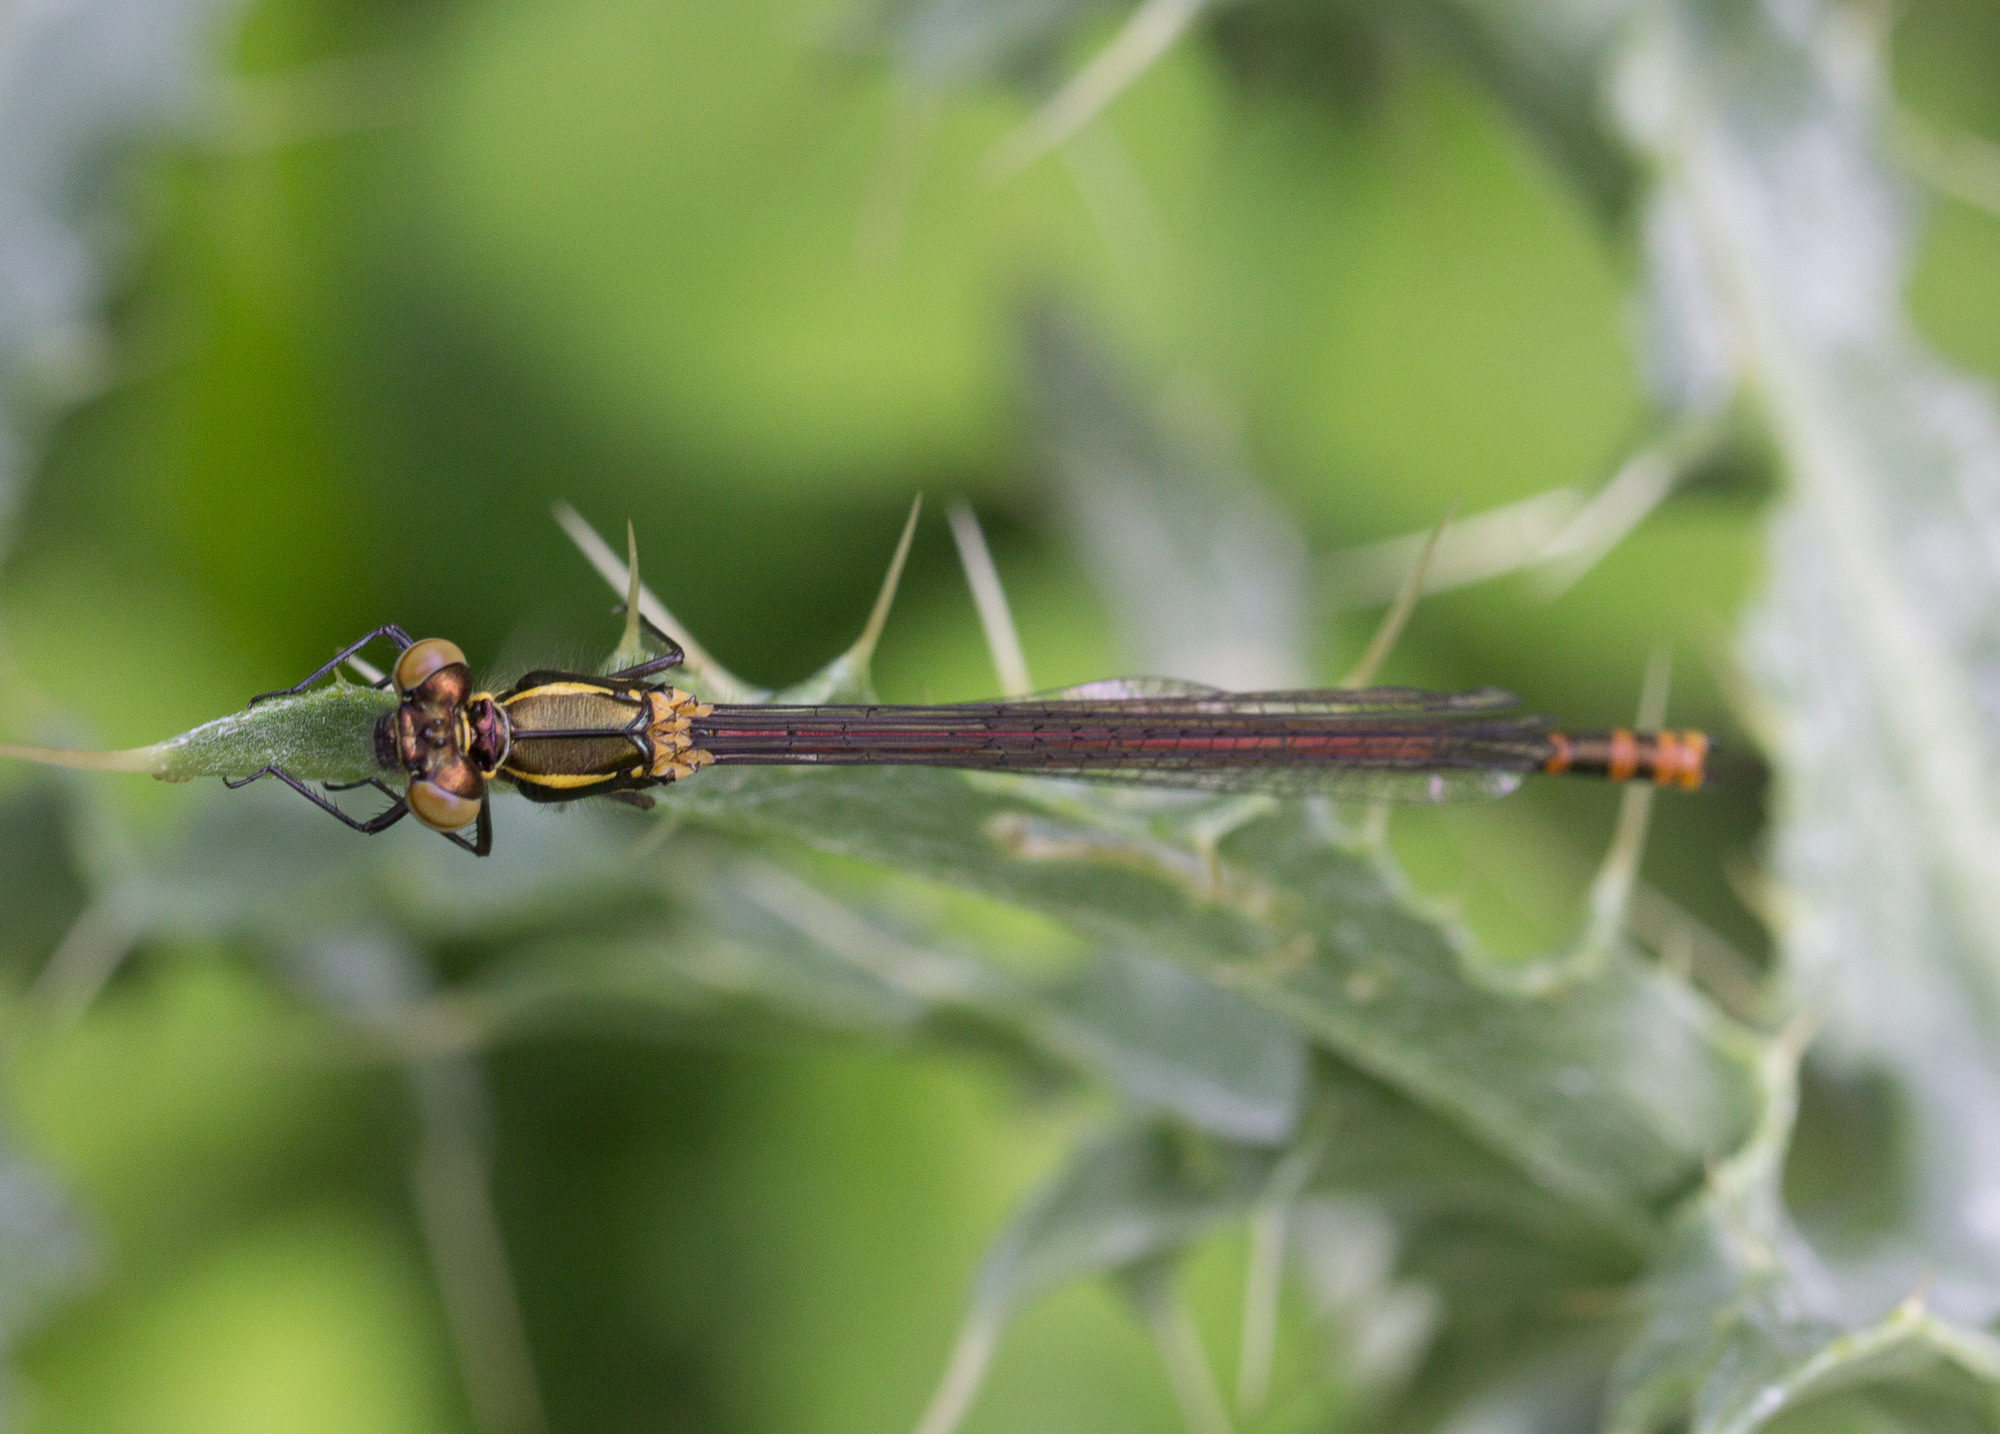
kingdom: Animalia
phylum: Arthropoda
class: Insecta
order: Odonata
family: Coenagrionidae
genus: Pyrrhosoma
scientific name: Pyrrhosoma nymphula
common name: Large red damsel
